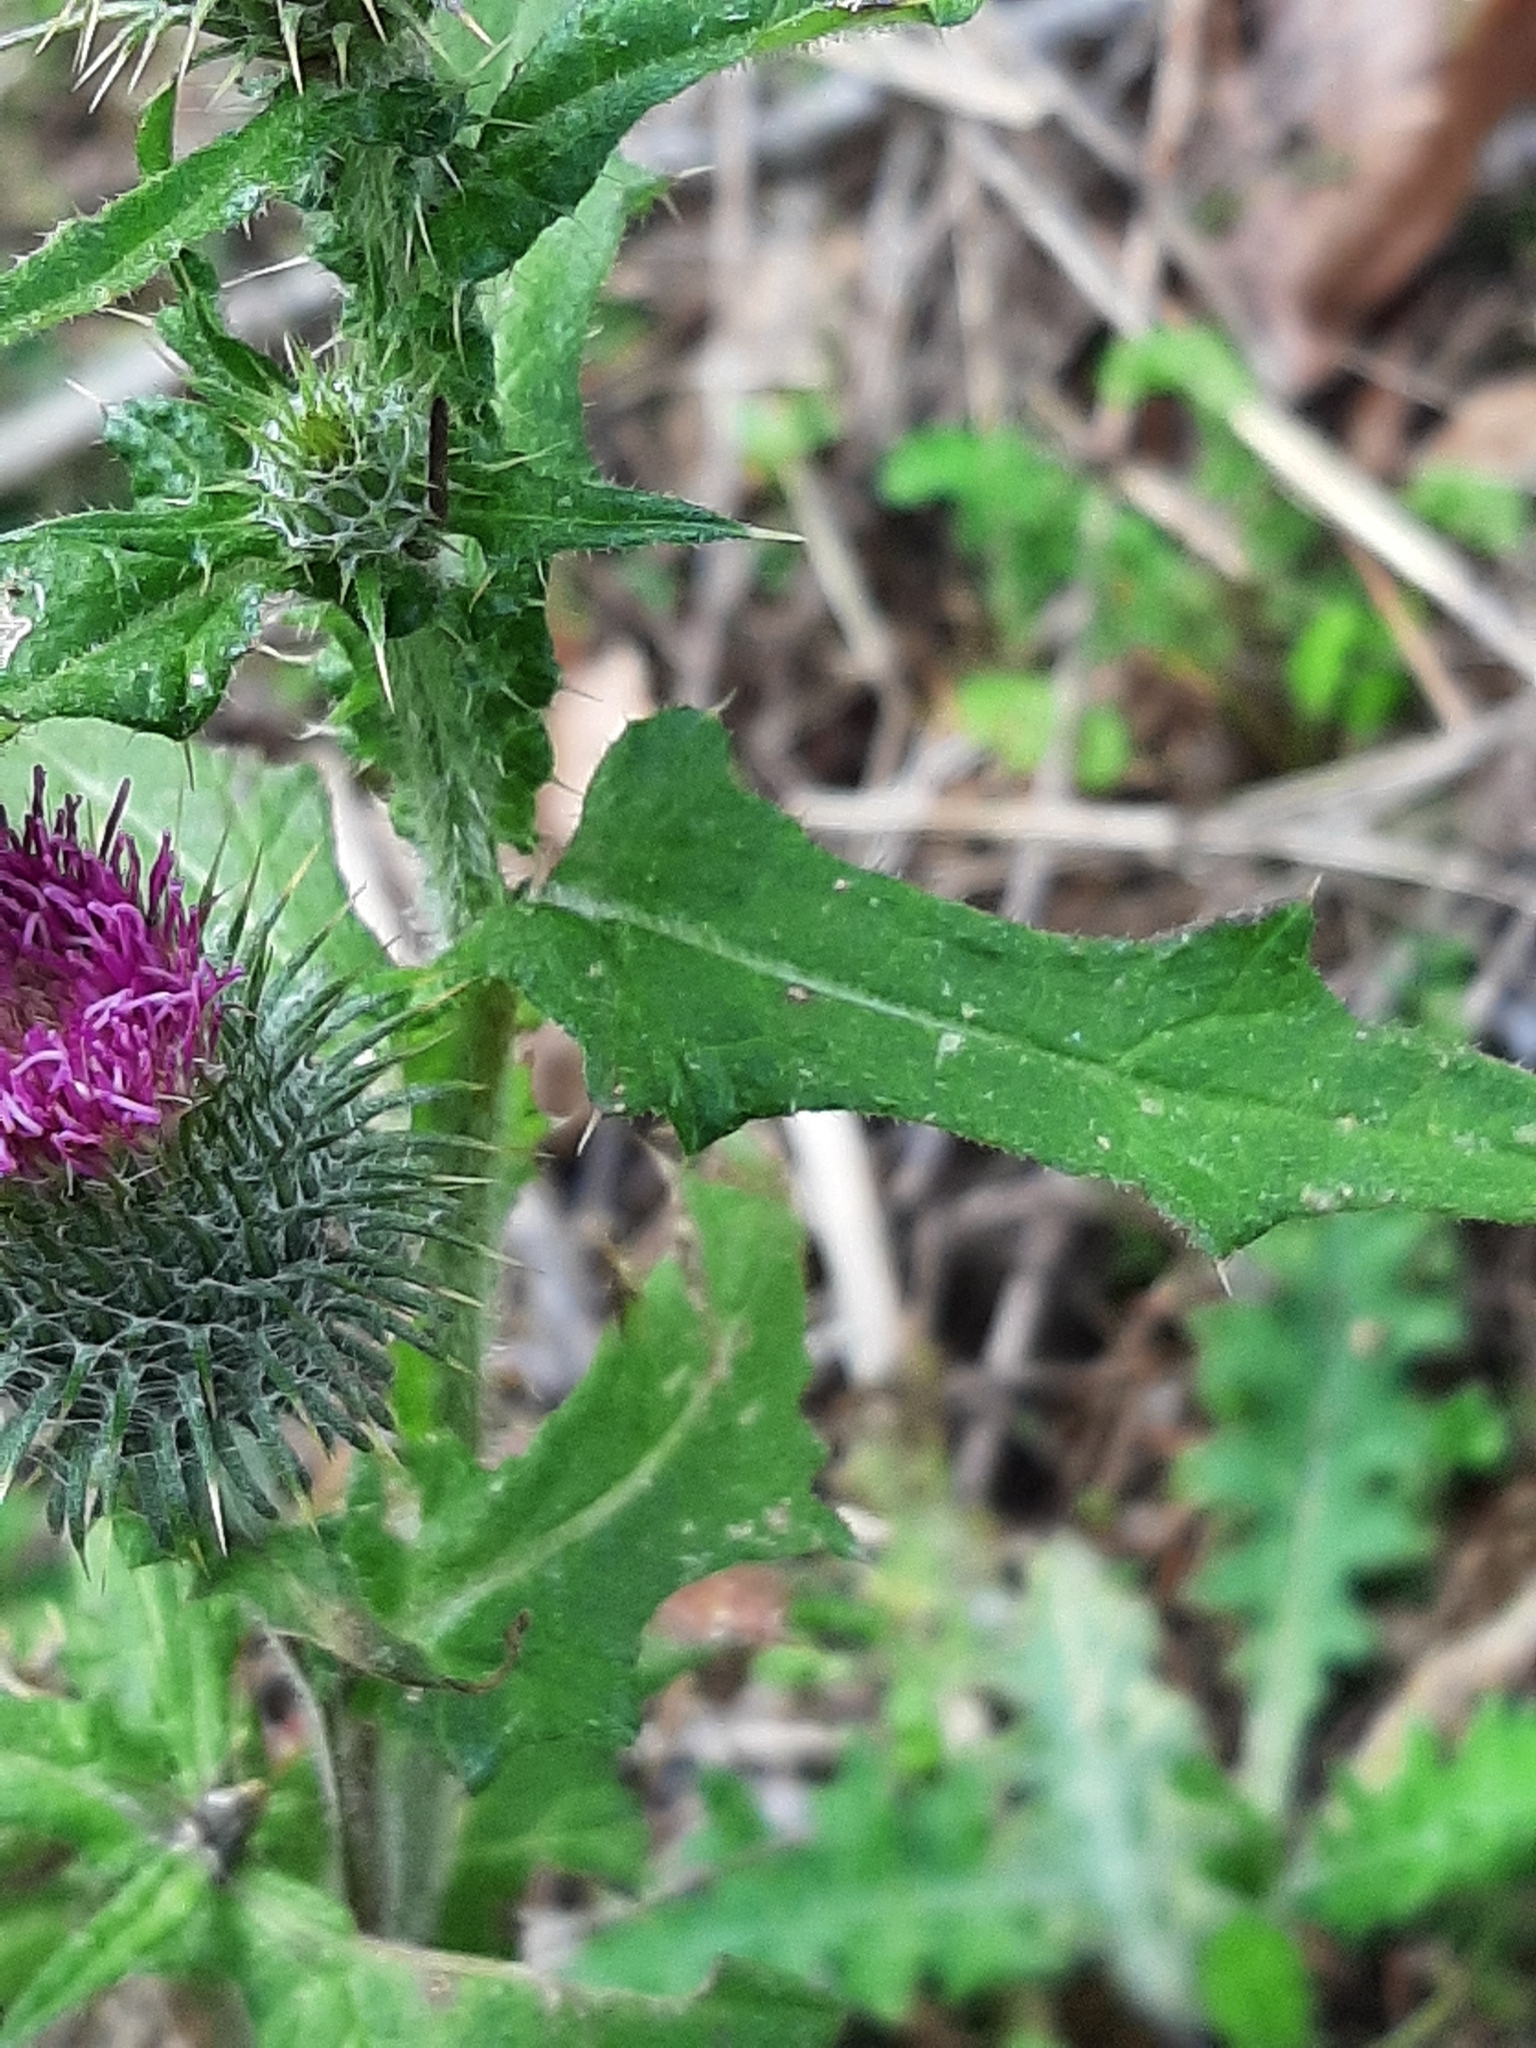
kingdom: Plantae
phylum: Tracheophyta
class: Magnoliopsida
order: Asterales
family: Asteraceae
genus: Cirsium
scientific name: Cirsium vulgare
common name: Bull thistle
